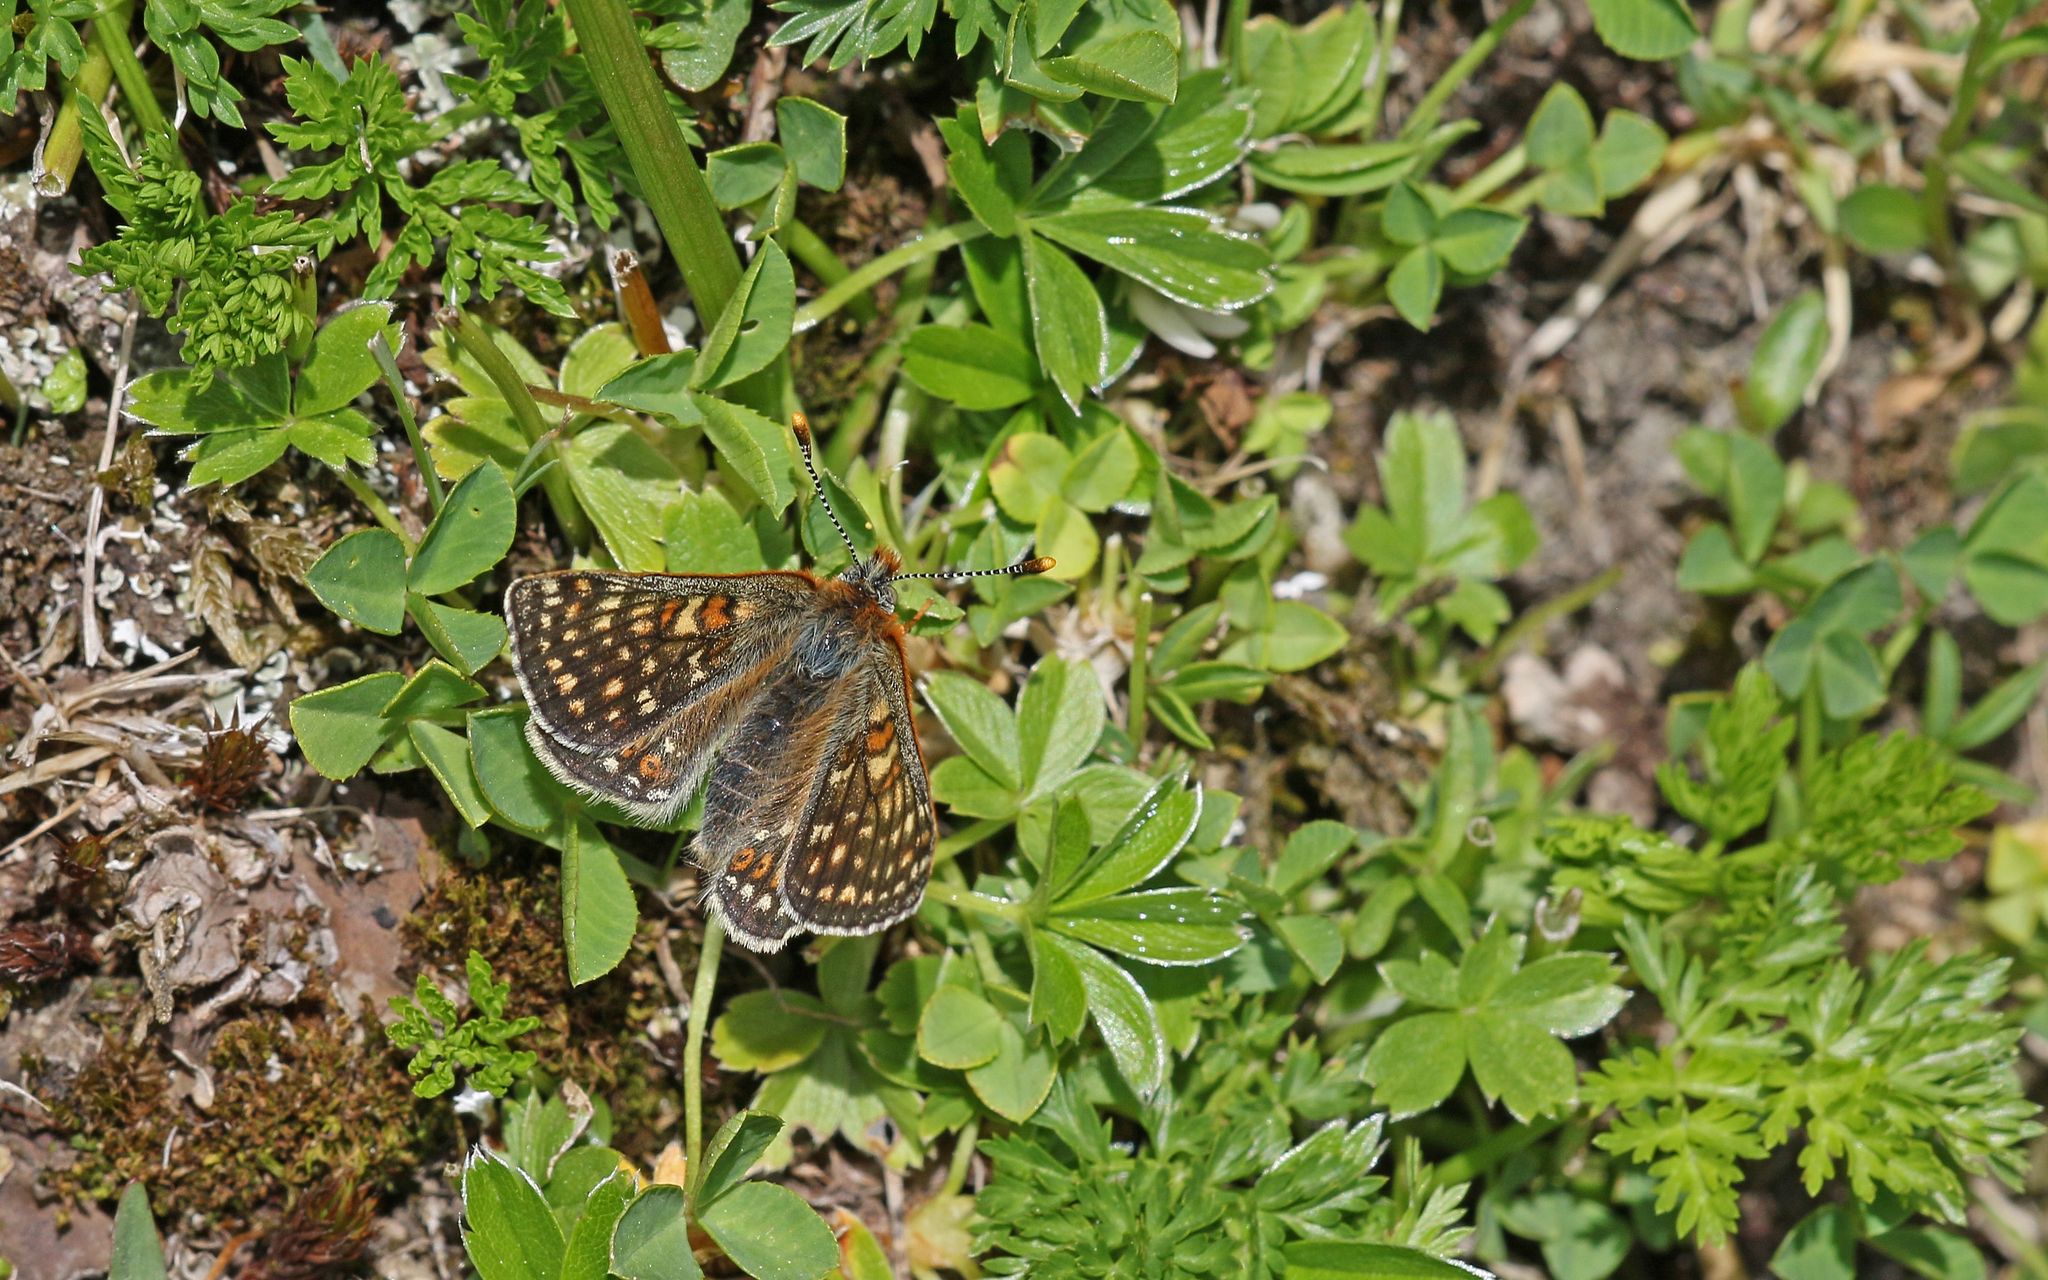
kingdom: Animalia
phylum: Arthropoda
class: Insecta
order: Lepidoptera
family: Nymphalidae
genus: Euphydryas
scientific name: Euphydryas aurinia
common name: Marsh fritillary
